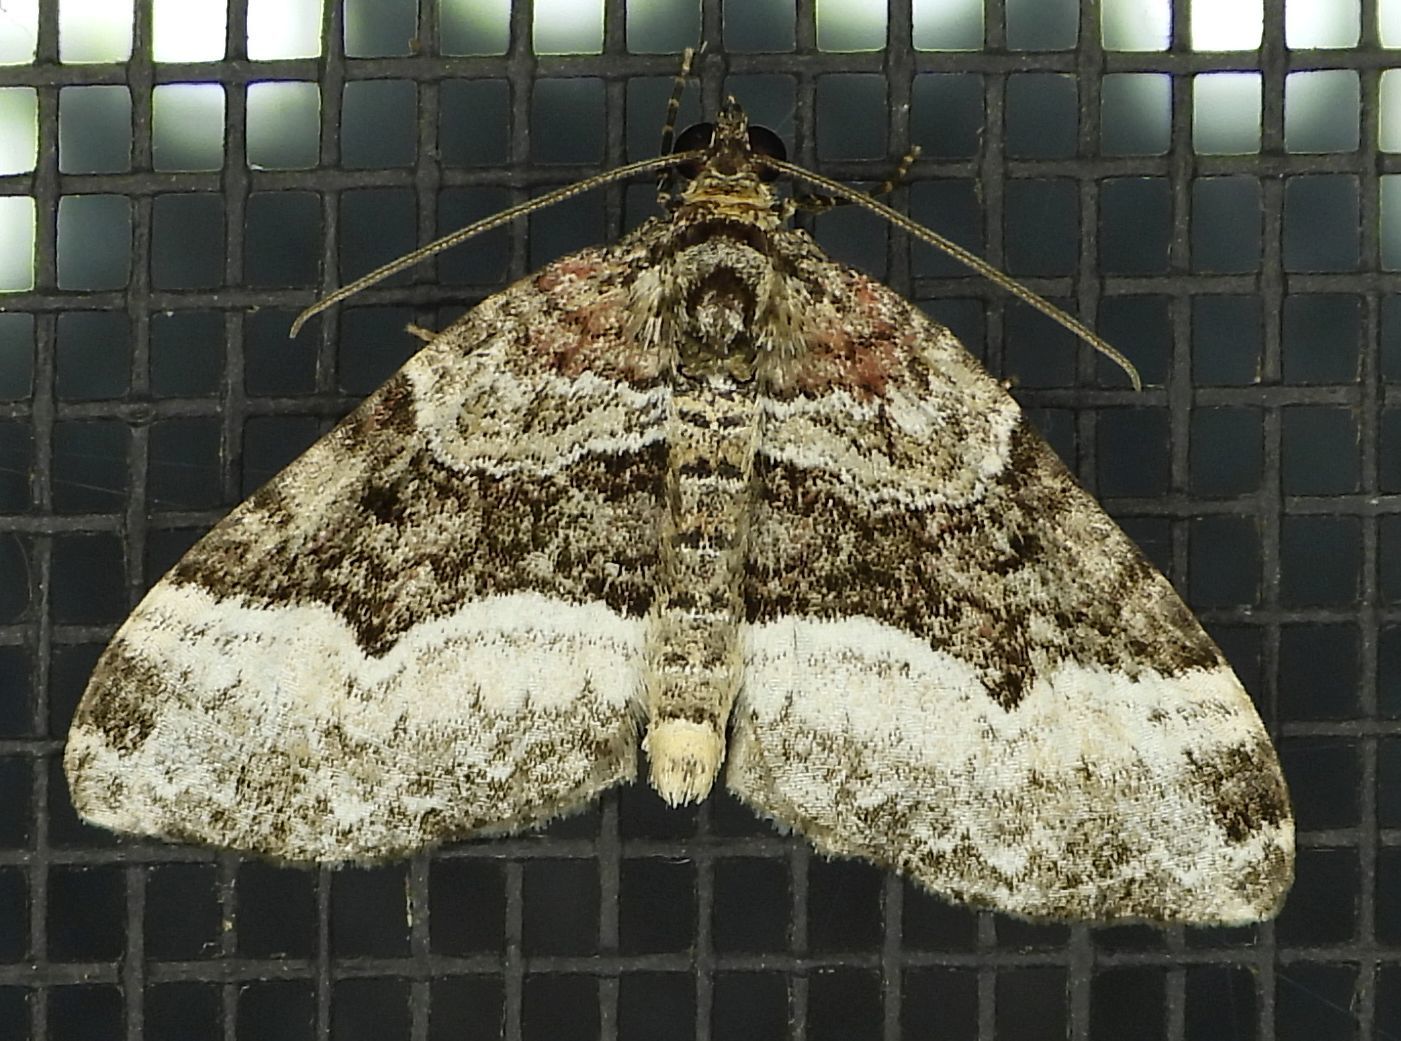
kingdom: Animalia
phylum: Arthropoda
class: Insecta
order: Lepidoptera
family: Geometridae
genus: Euphyia
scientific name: Euphyia intermediata
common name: Sharp-angled carpet
